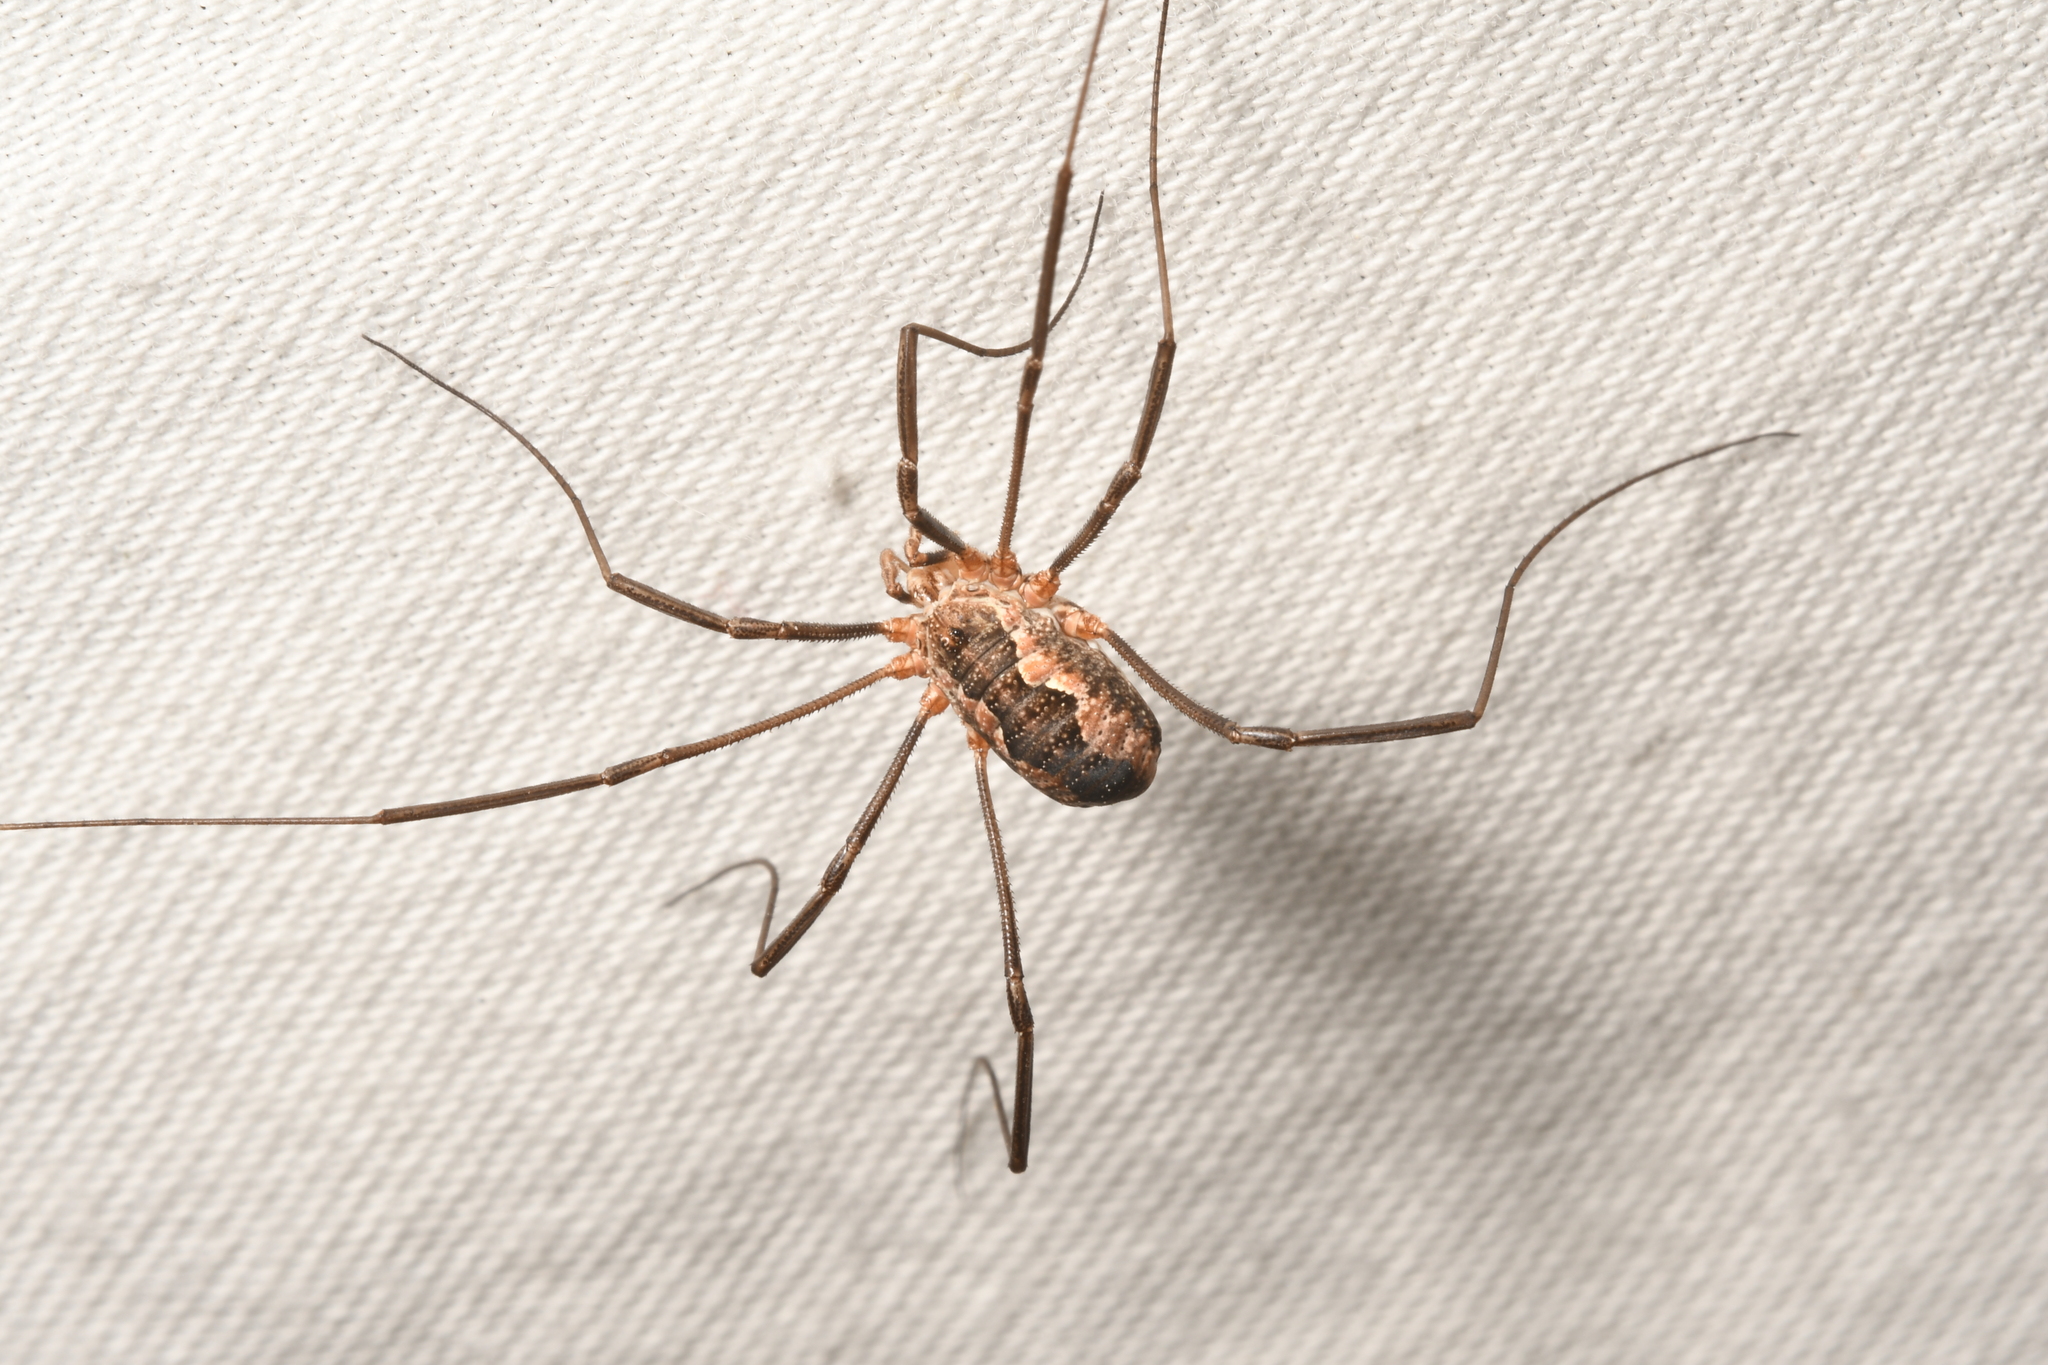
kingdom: Animalia
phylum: Arthropoda
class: Arachnida
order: Opiliones
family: Phalangiidae
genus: Phalangium
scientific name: Phalangium opilio
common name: Daddy longleg
